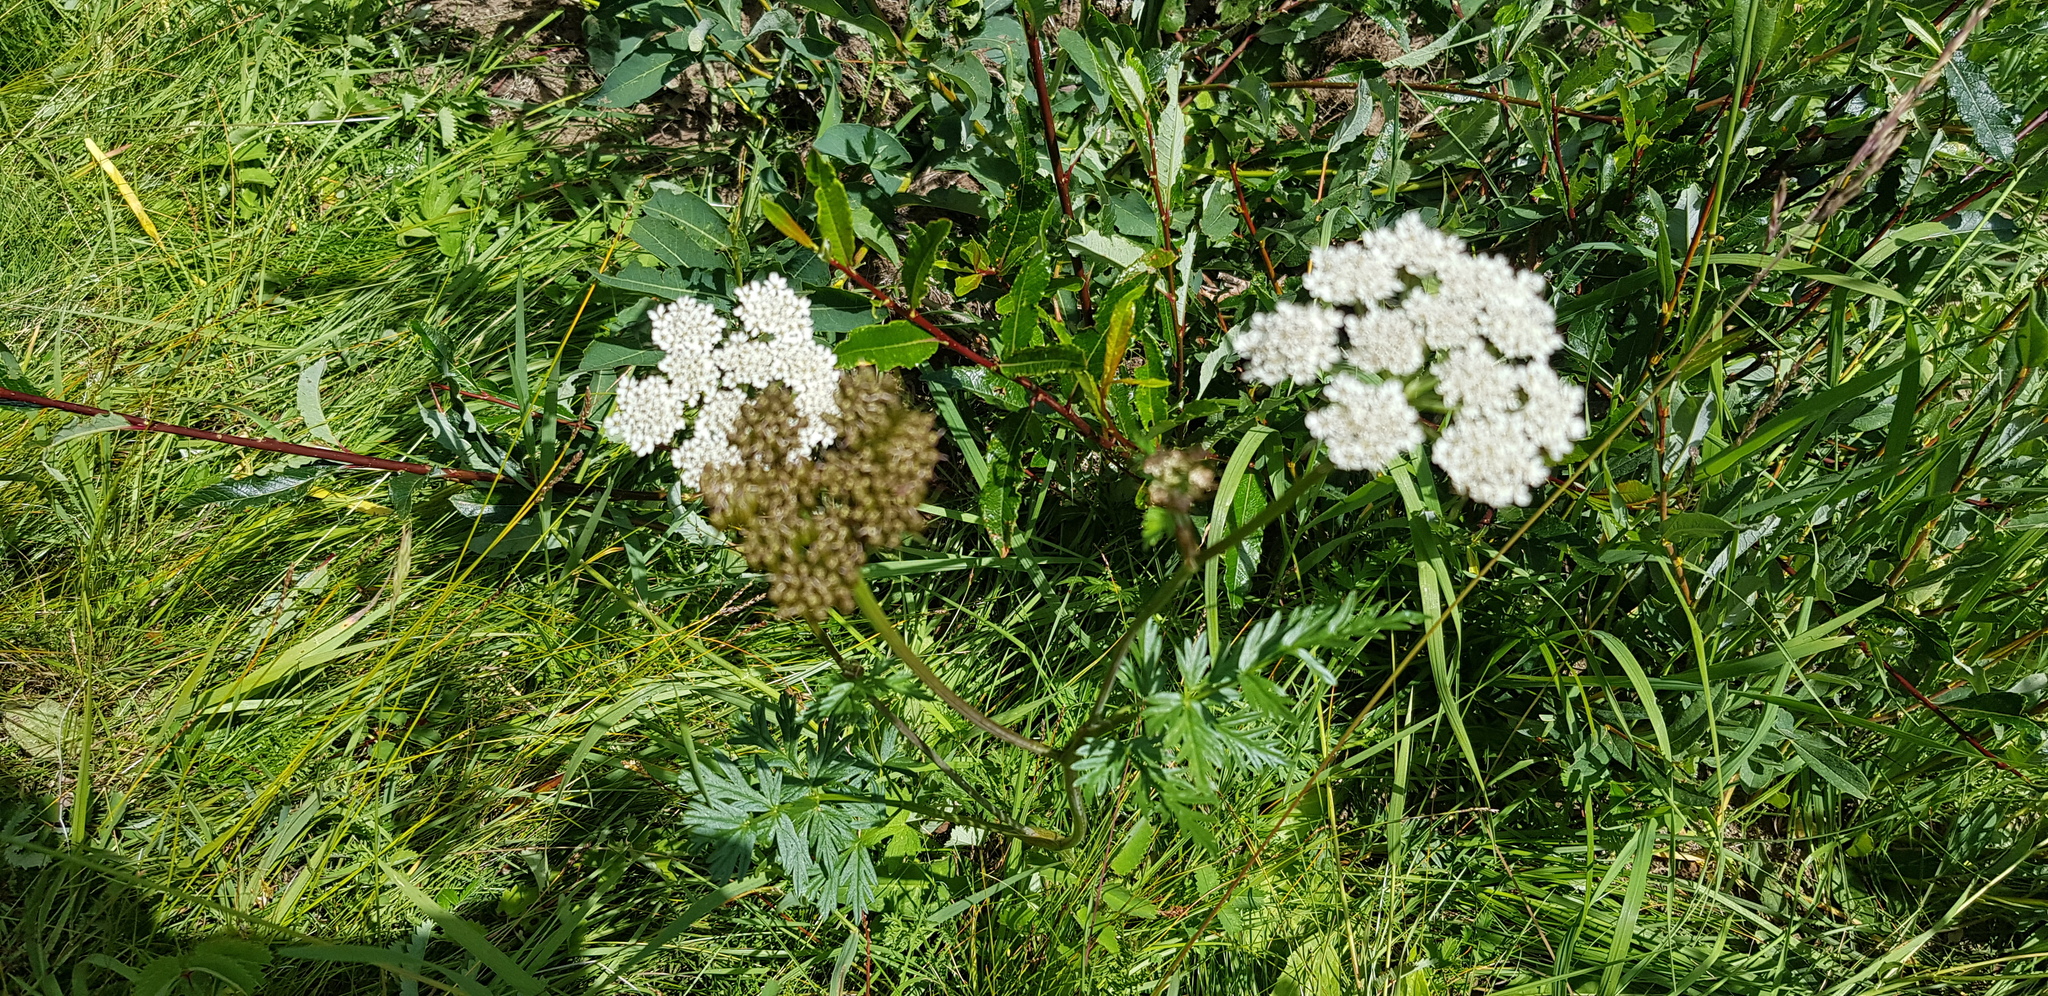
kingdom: Plantae
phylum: Tracheophyta
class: Magnoliopsida
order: Apiales
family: Apiaceae
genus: Seseli
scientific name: Seseli condensatum
